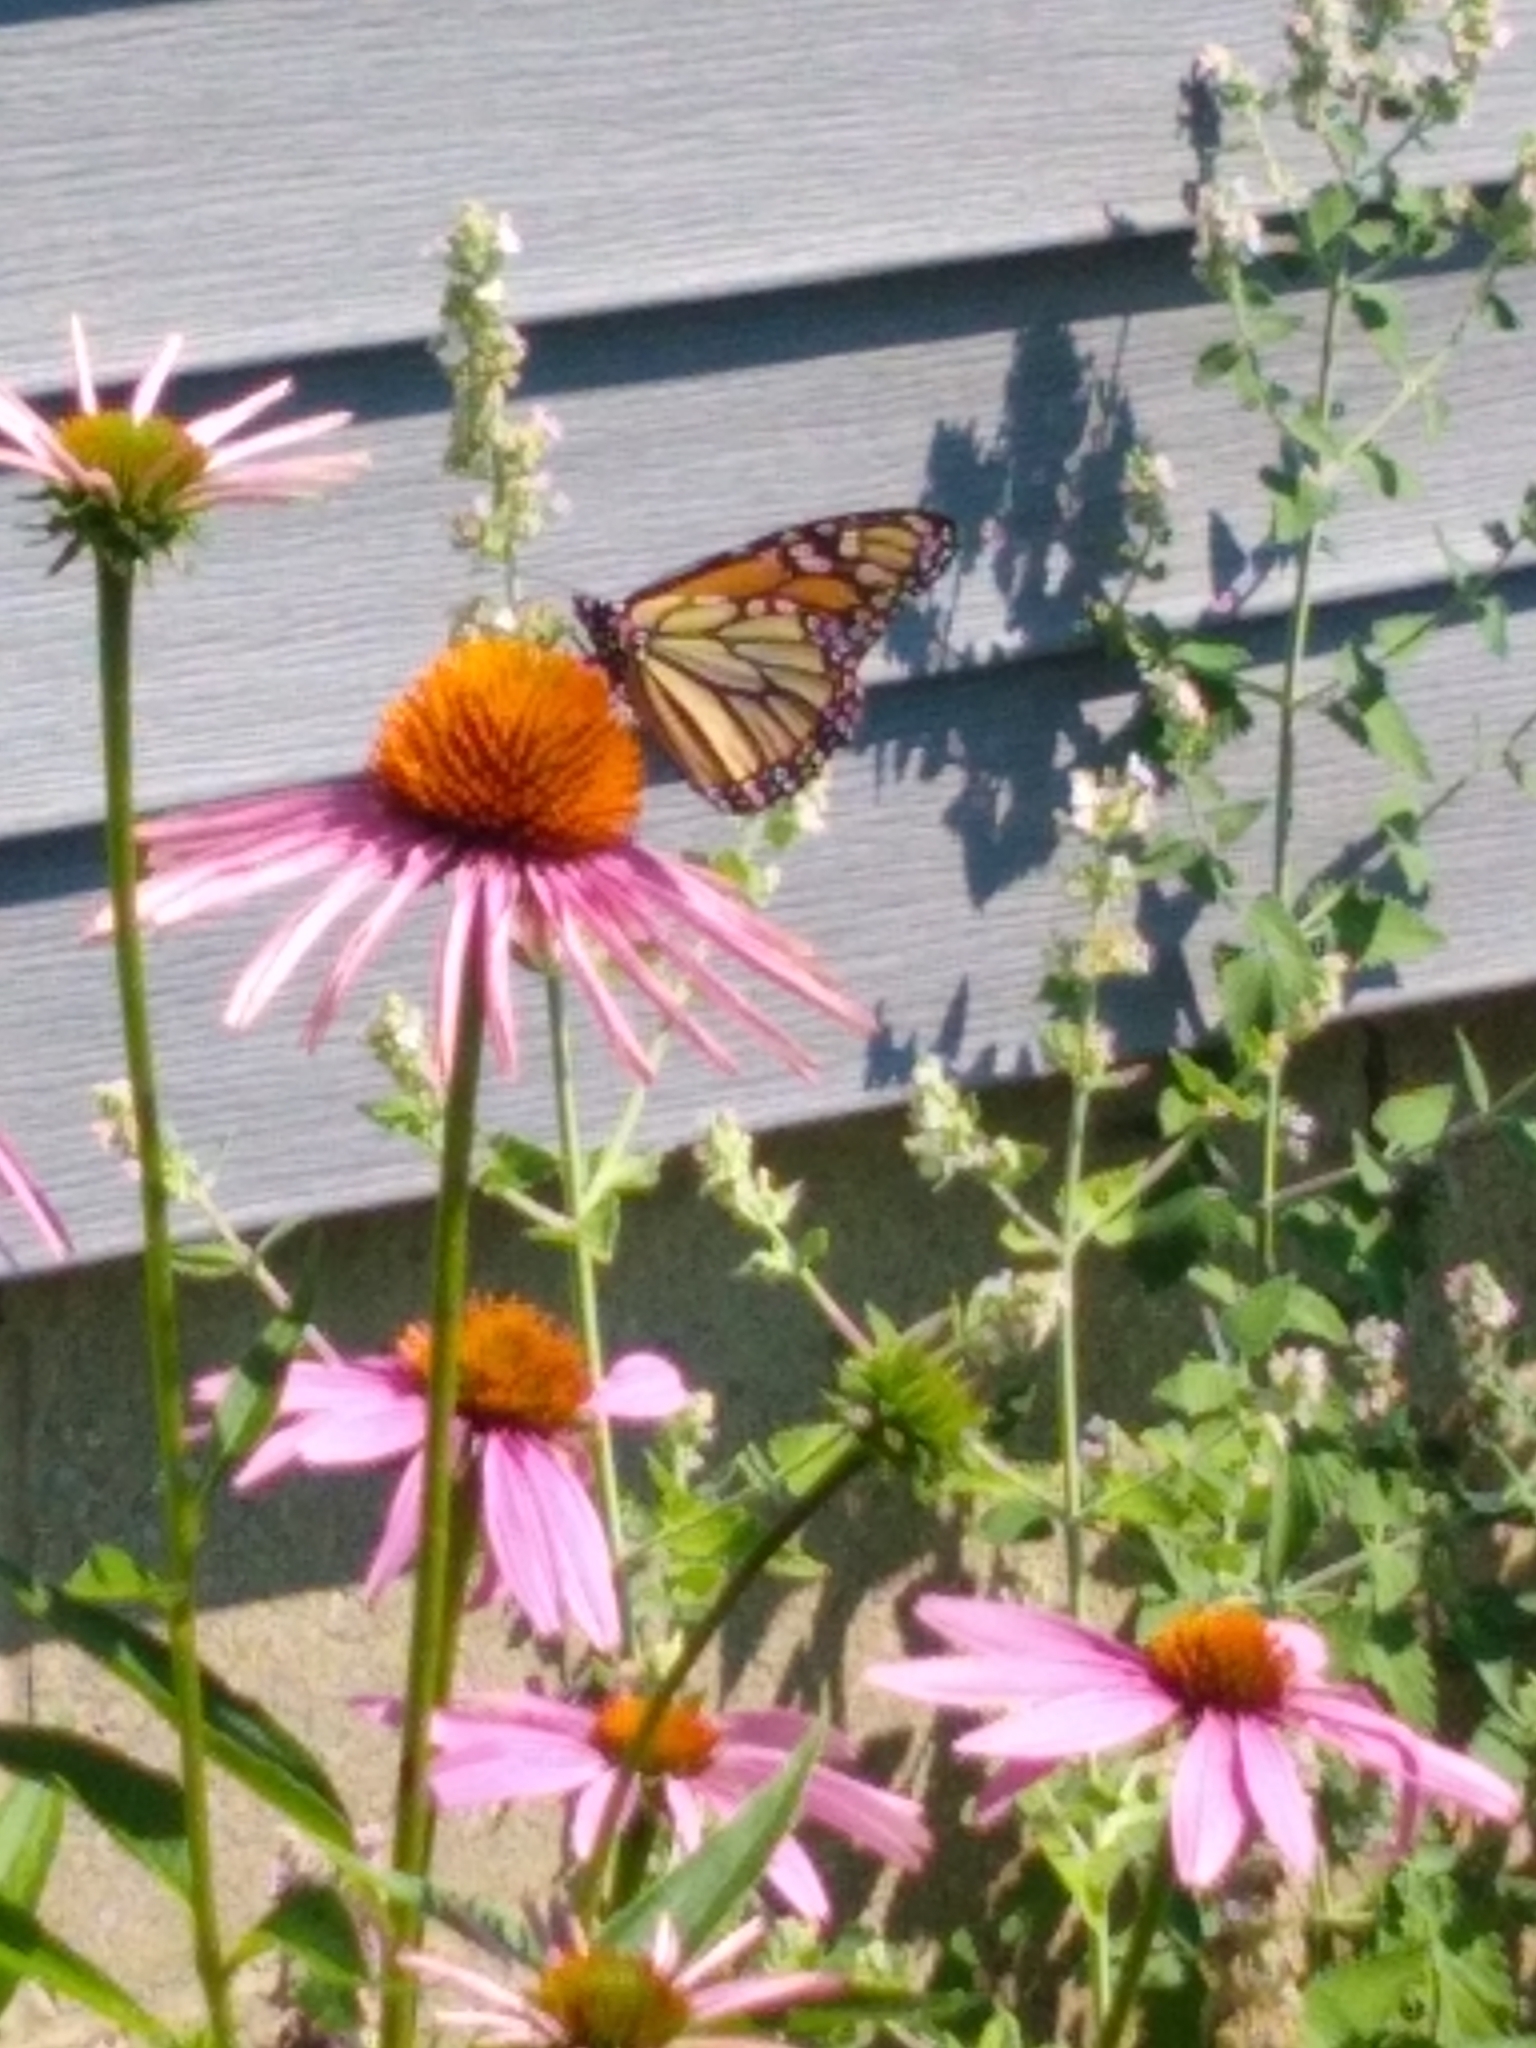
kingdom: Animalia
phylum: Arthropoda
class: Insecta
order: Lepidoptera
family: Nymphalidae
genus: Danaus
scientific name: Danaus plexippus
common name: Monarch
